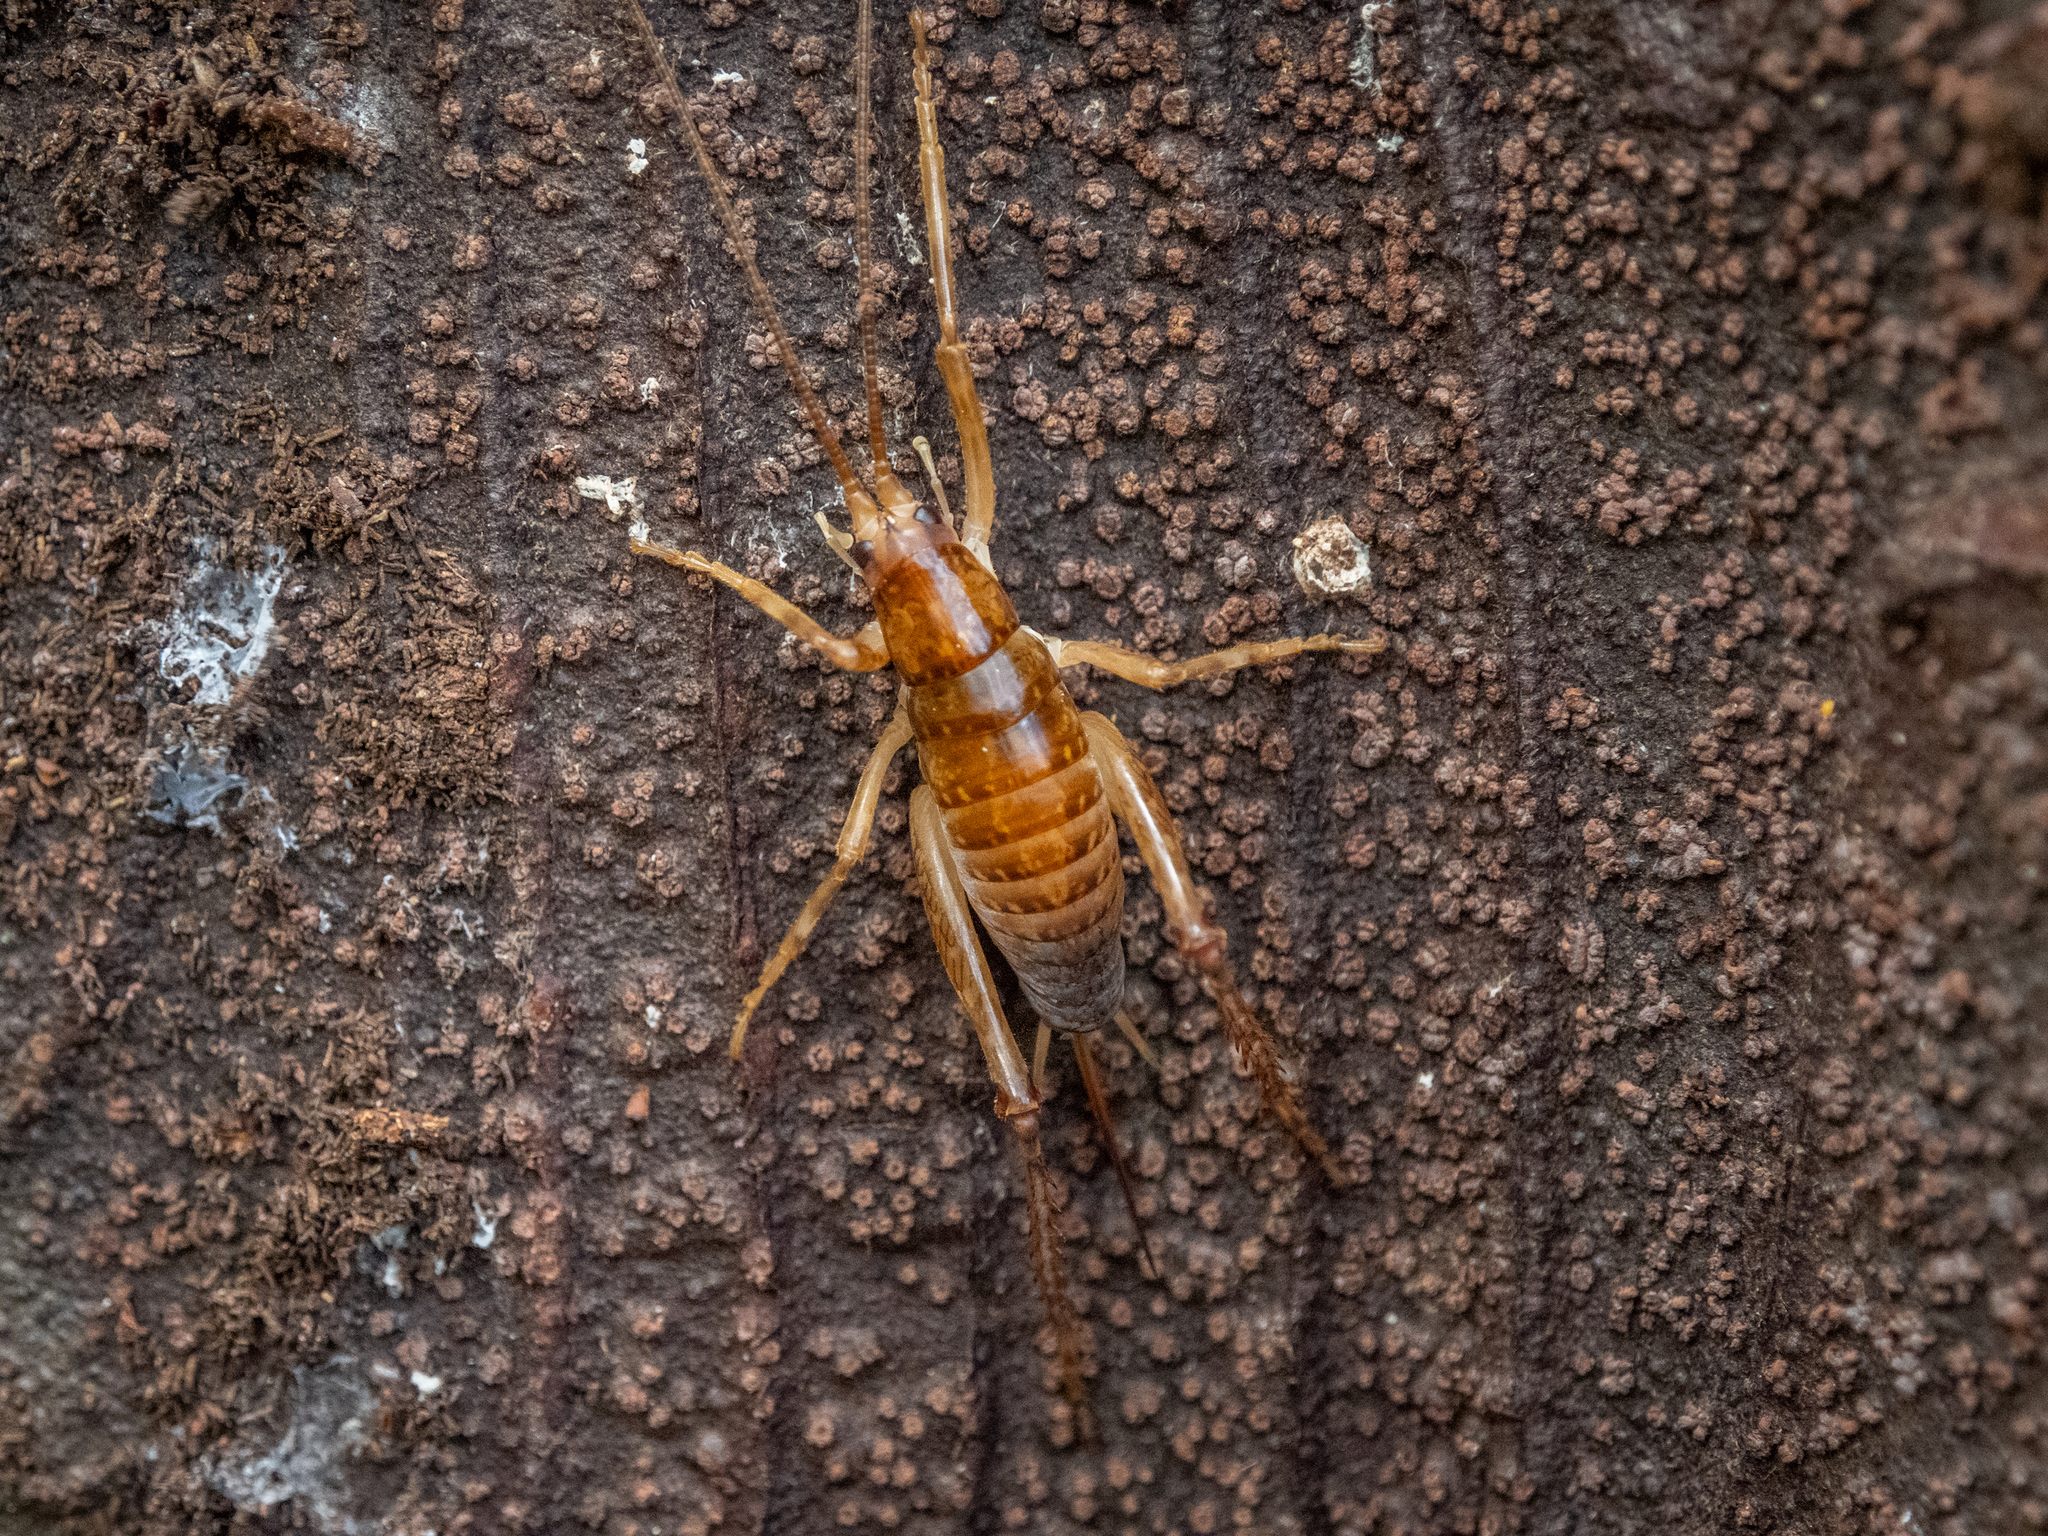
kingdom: Animalia
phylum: Arthropoda
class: Insecta
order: Orthoptera
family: Rhaphidophoridae
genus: Talitropsis
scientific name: Talitropsis sedilloti
